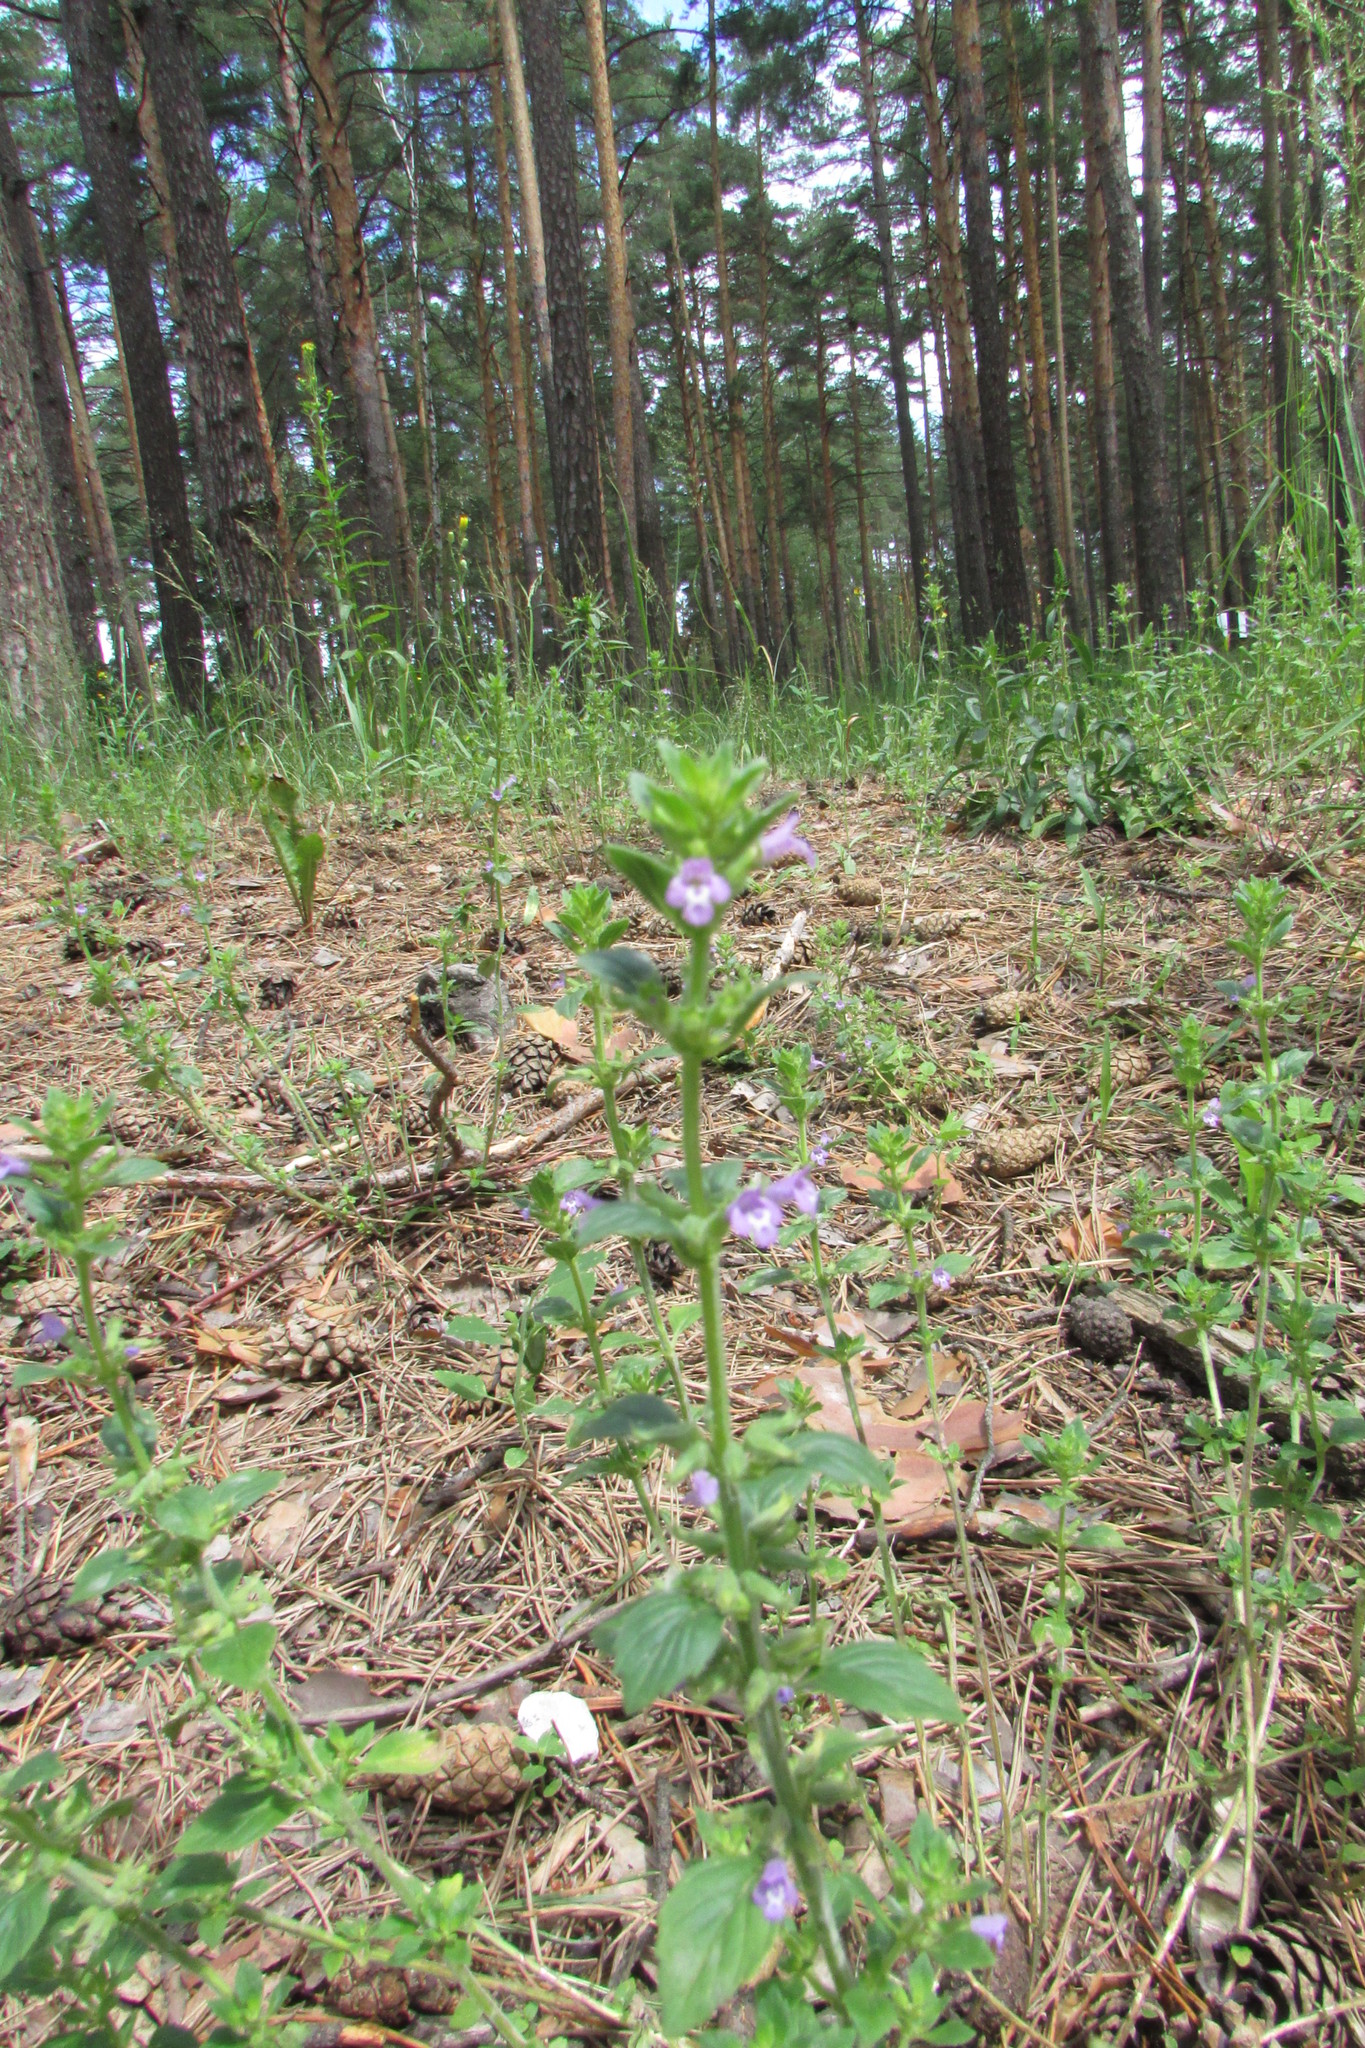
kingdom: Plantae
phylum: Tracheophyta
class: Magnoliopsida
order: Lamiales
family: Lamiaceae
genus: Clinopodium
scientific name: Clinopodium acinos
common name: Basil thyme
